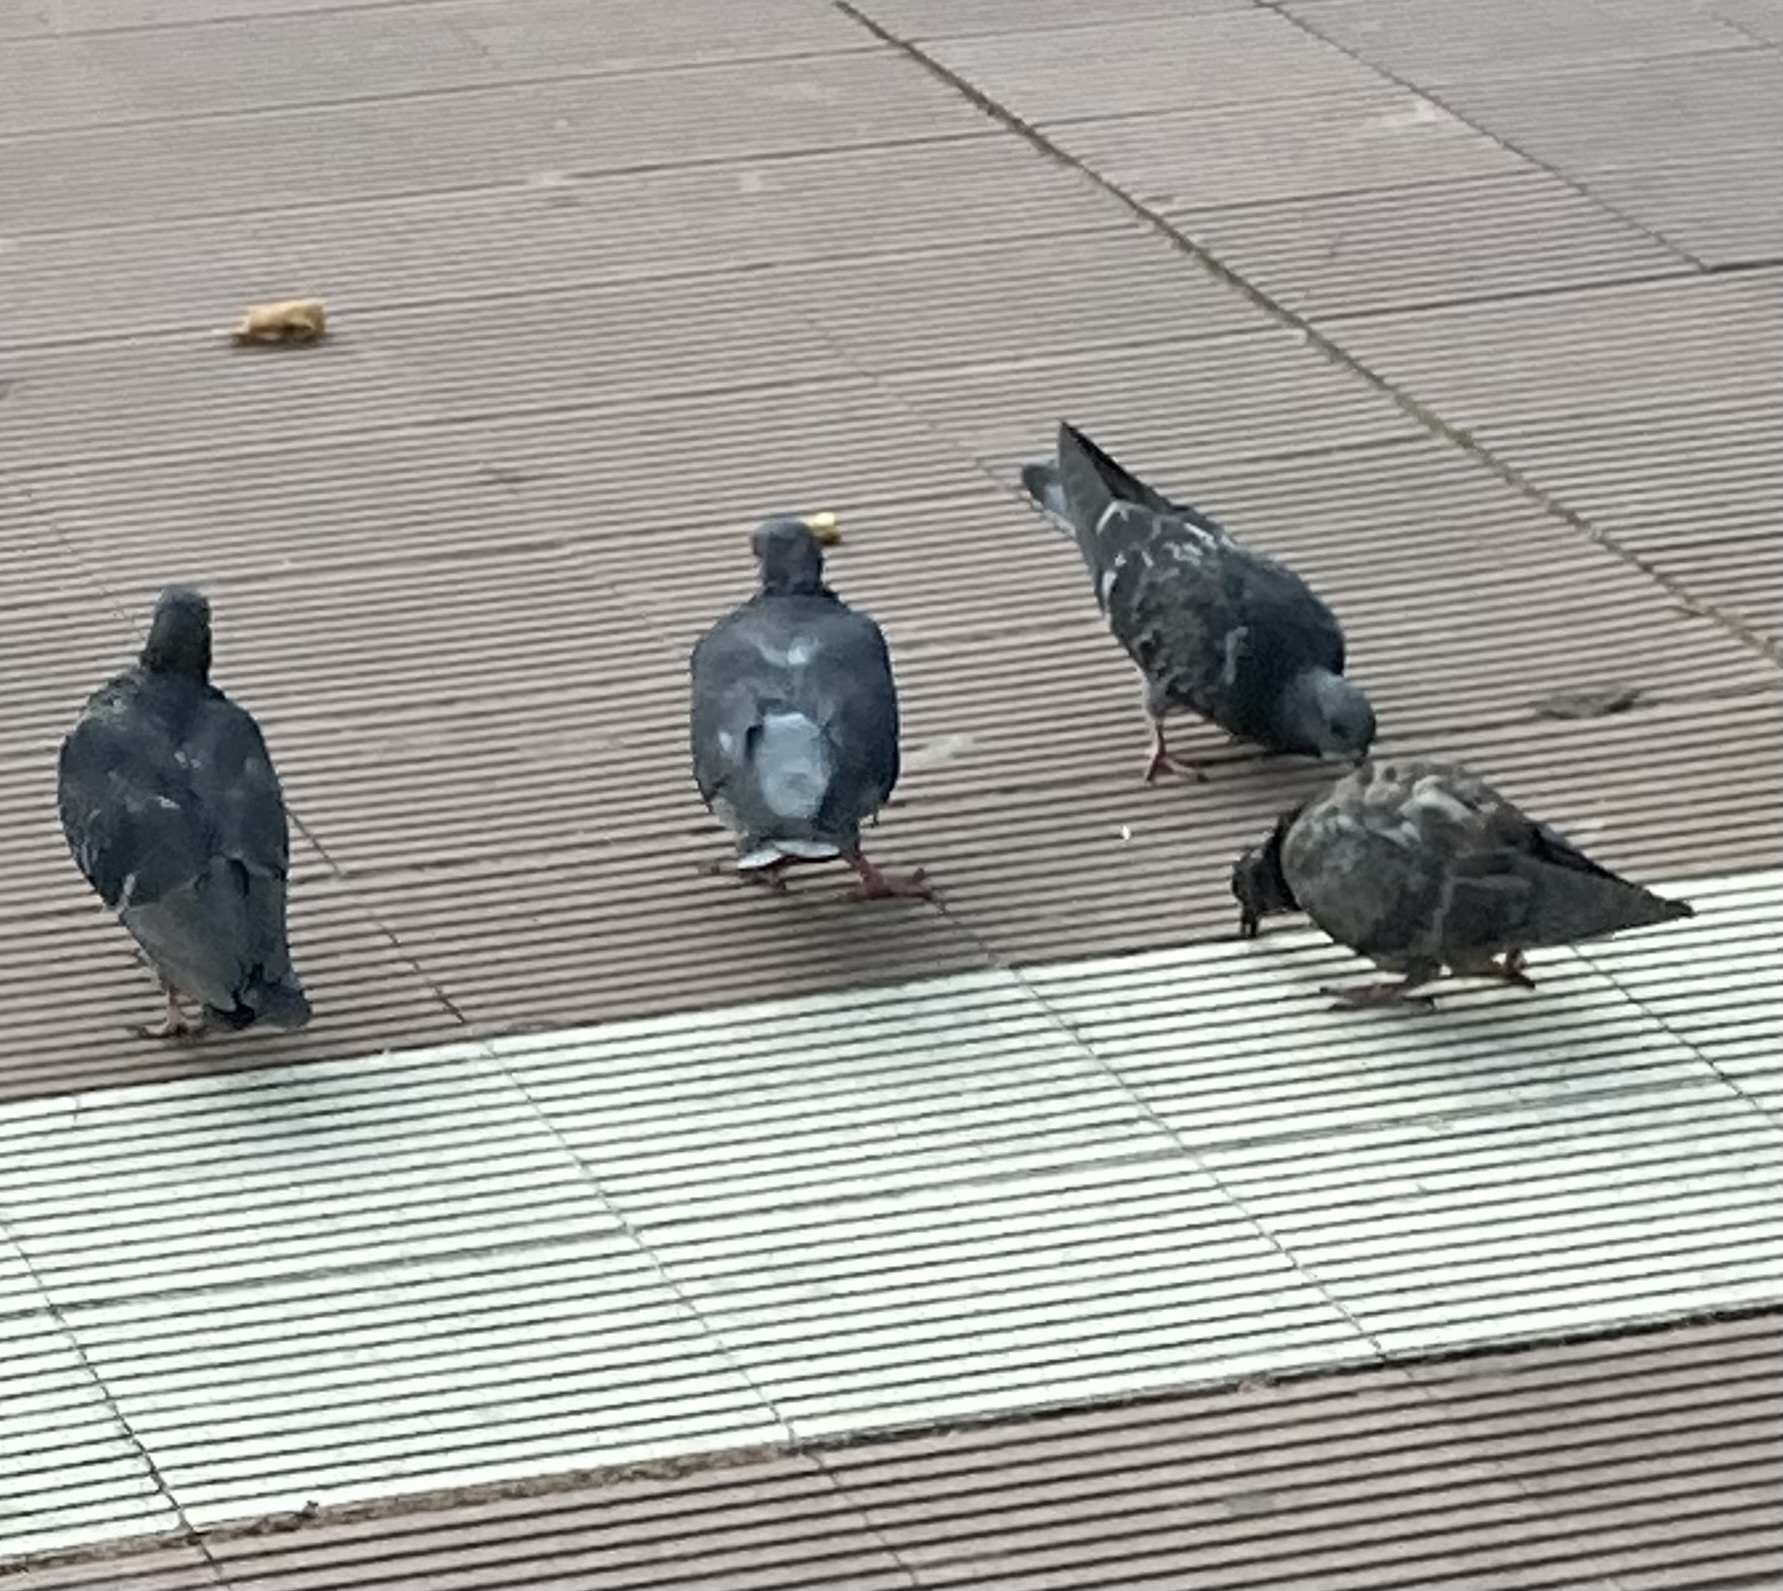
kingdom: Animalia
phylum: Chordata
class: Aves
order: Columbiformes
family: Columbidae
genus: Columba
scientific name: Columba livia
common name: Rock pigeon
